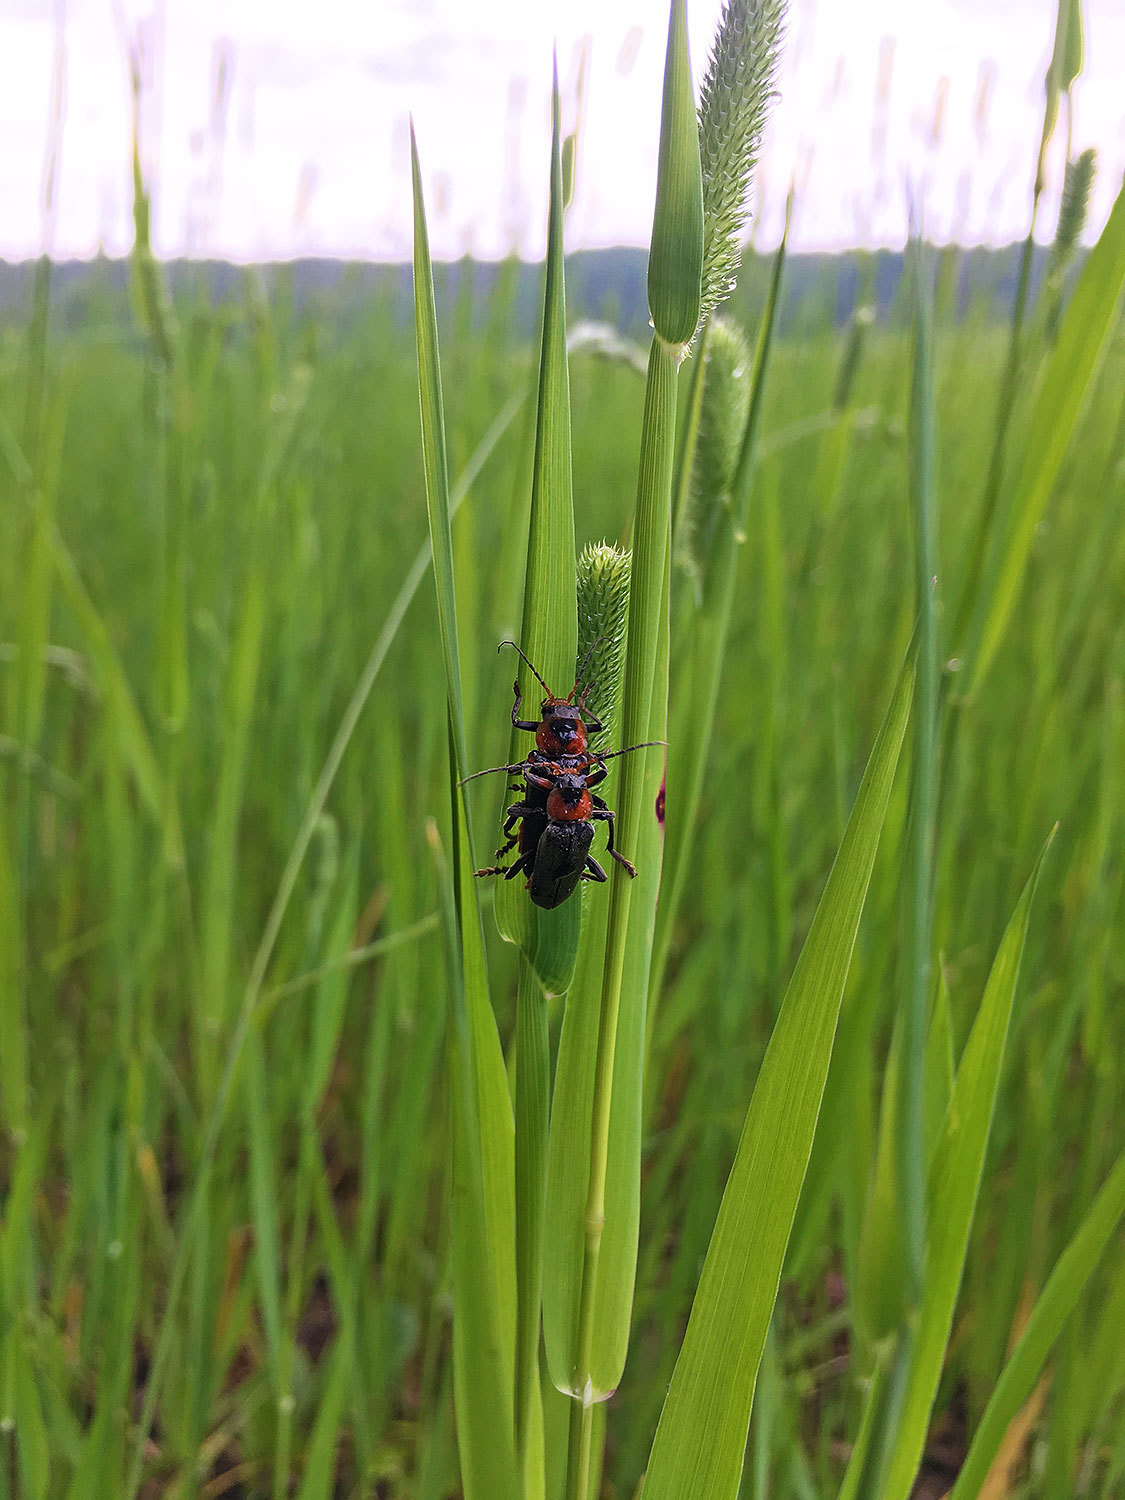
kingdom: Animalia
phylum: Arthropoda
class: Insecta
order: Coleoptera
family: Cantharidae
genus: Cantharis
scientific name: Cantharis fusca
